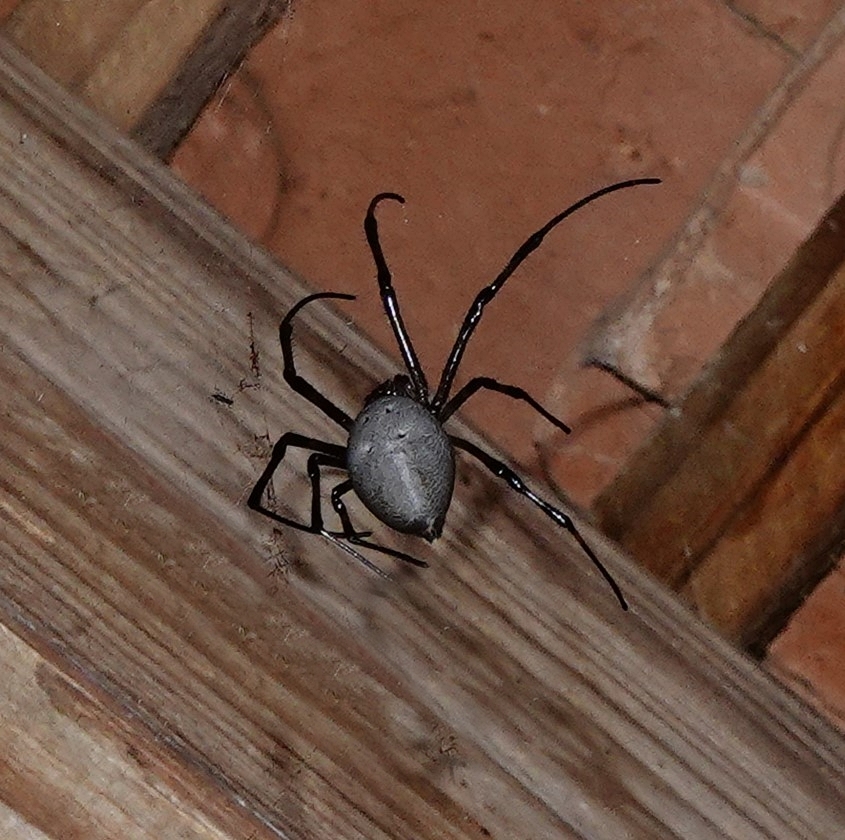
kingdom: Animalia
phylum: Arthropoda
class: Arachnida
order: Araneae
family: Araneidae
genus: Nephilingis
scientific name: Nephilingis livida
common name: Madagascar hermit spider
